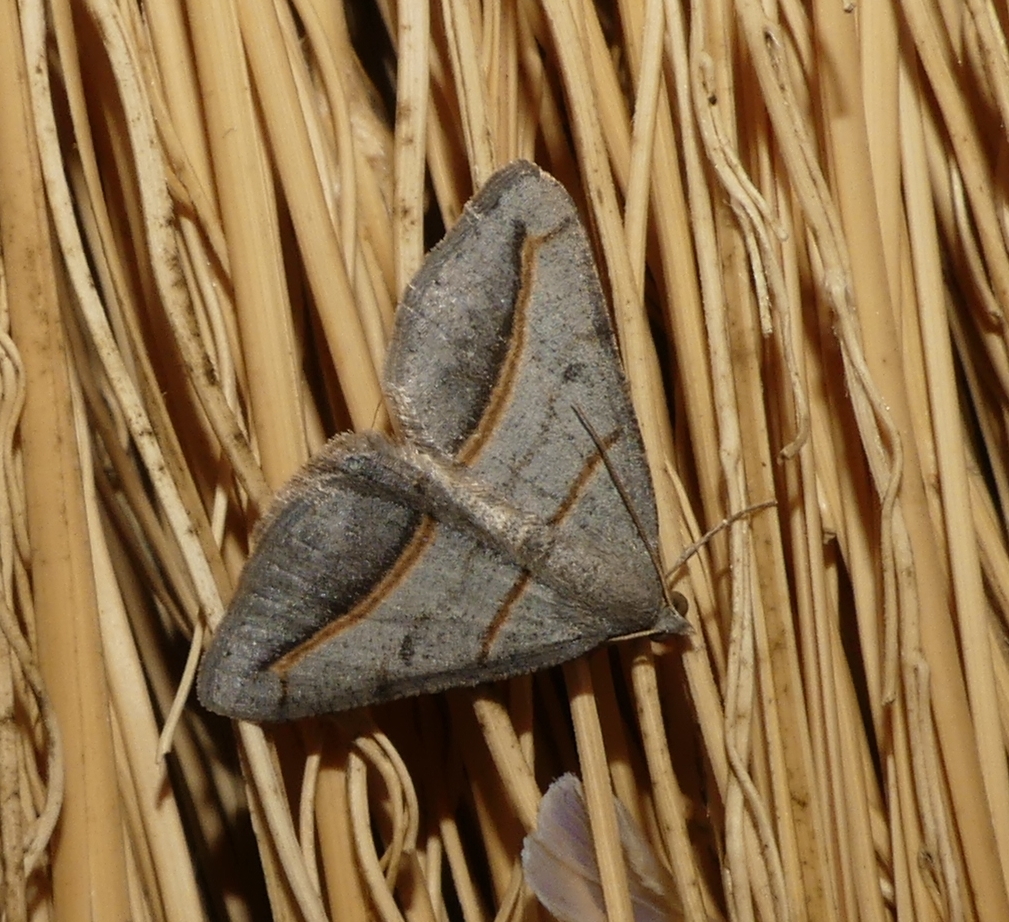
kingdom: Animalia
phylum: Arthropoda
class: Insecta
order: Lepidoptera
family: Geometridae
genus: Digrammia
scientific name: Digrammia mellistrigata
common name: Yellow-lined angle
